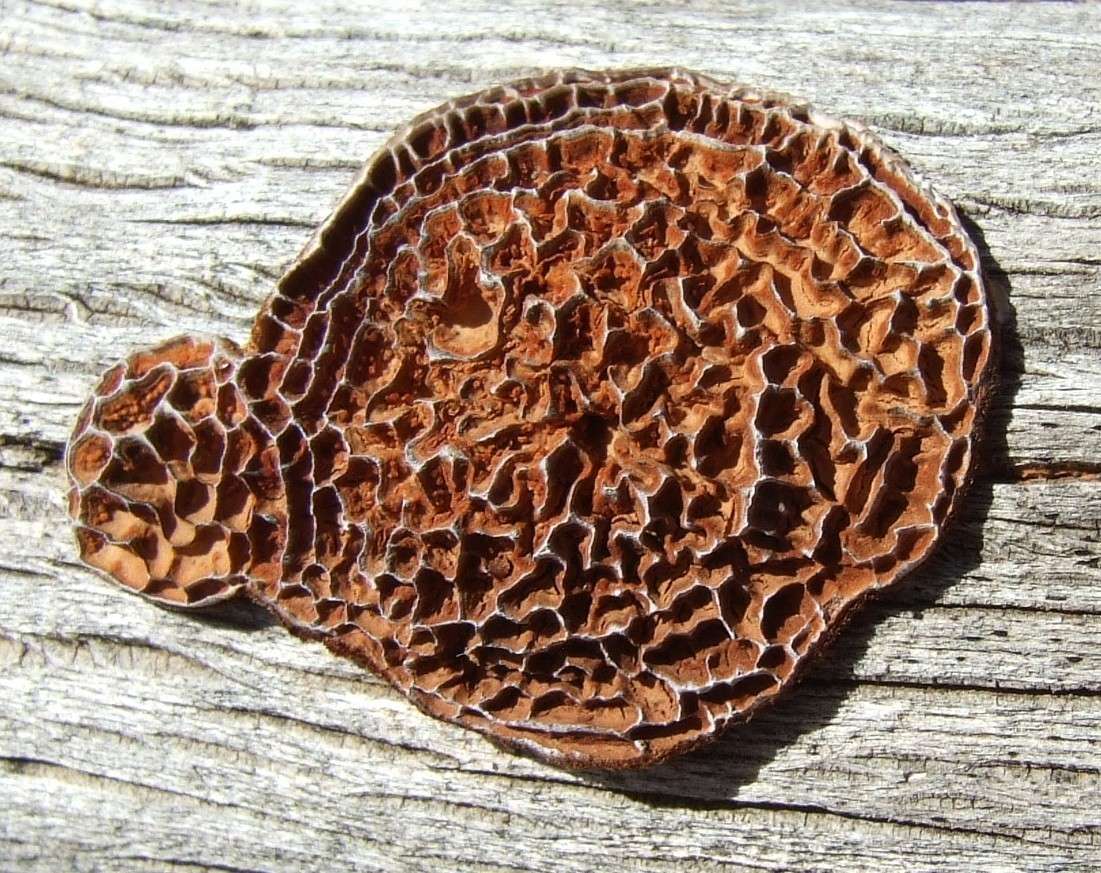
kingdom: Fungi
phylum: Basidiomycota
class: Agaricomycetes
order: Polyporales
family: Polyporaceae
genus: Phaeotrametes
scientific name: Phaeotrametes decipiens
